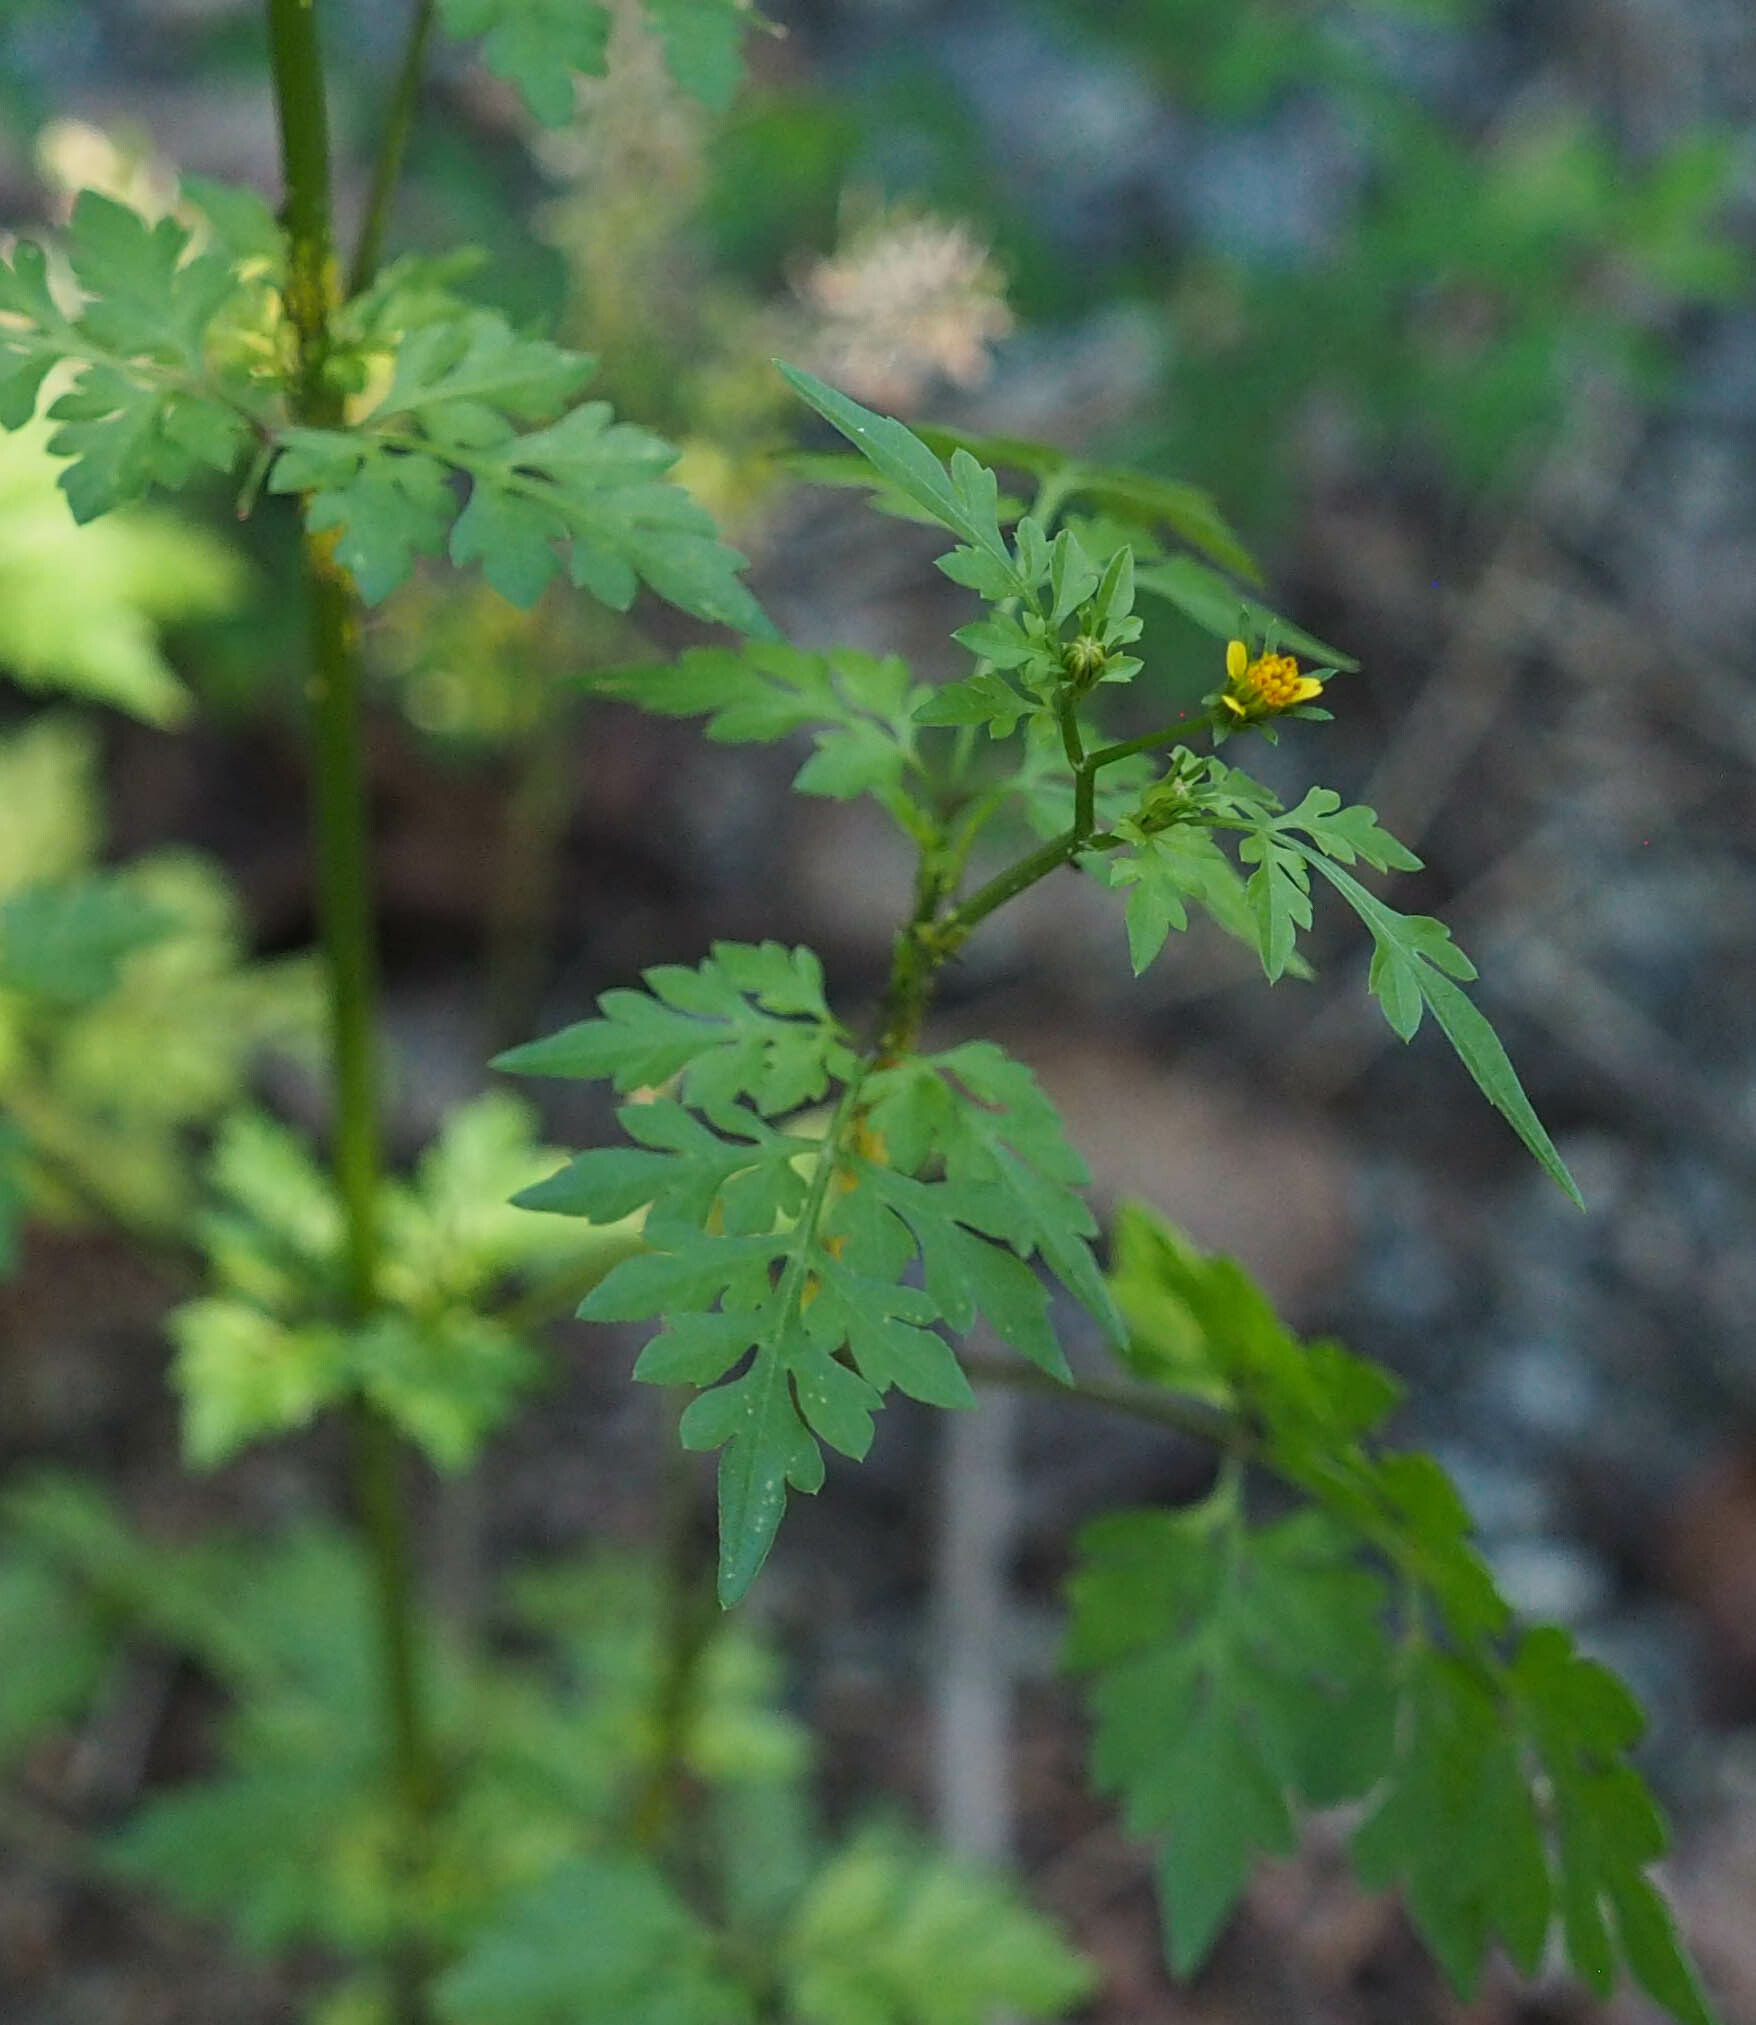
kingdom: Plantae
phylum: Tracheophyta
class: Magnoliopsida
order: Asterales
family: Asteraceae
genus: Bidens
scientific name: Bidens bipinnata
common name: Spanish-needles
